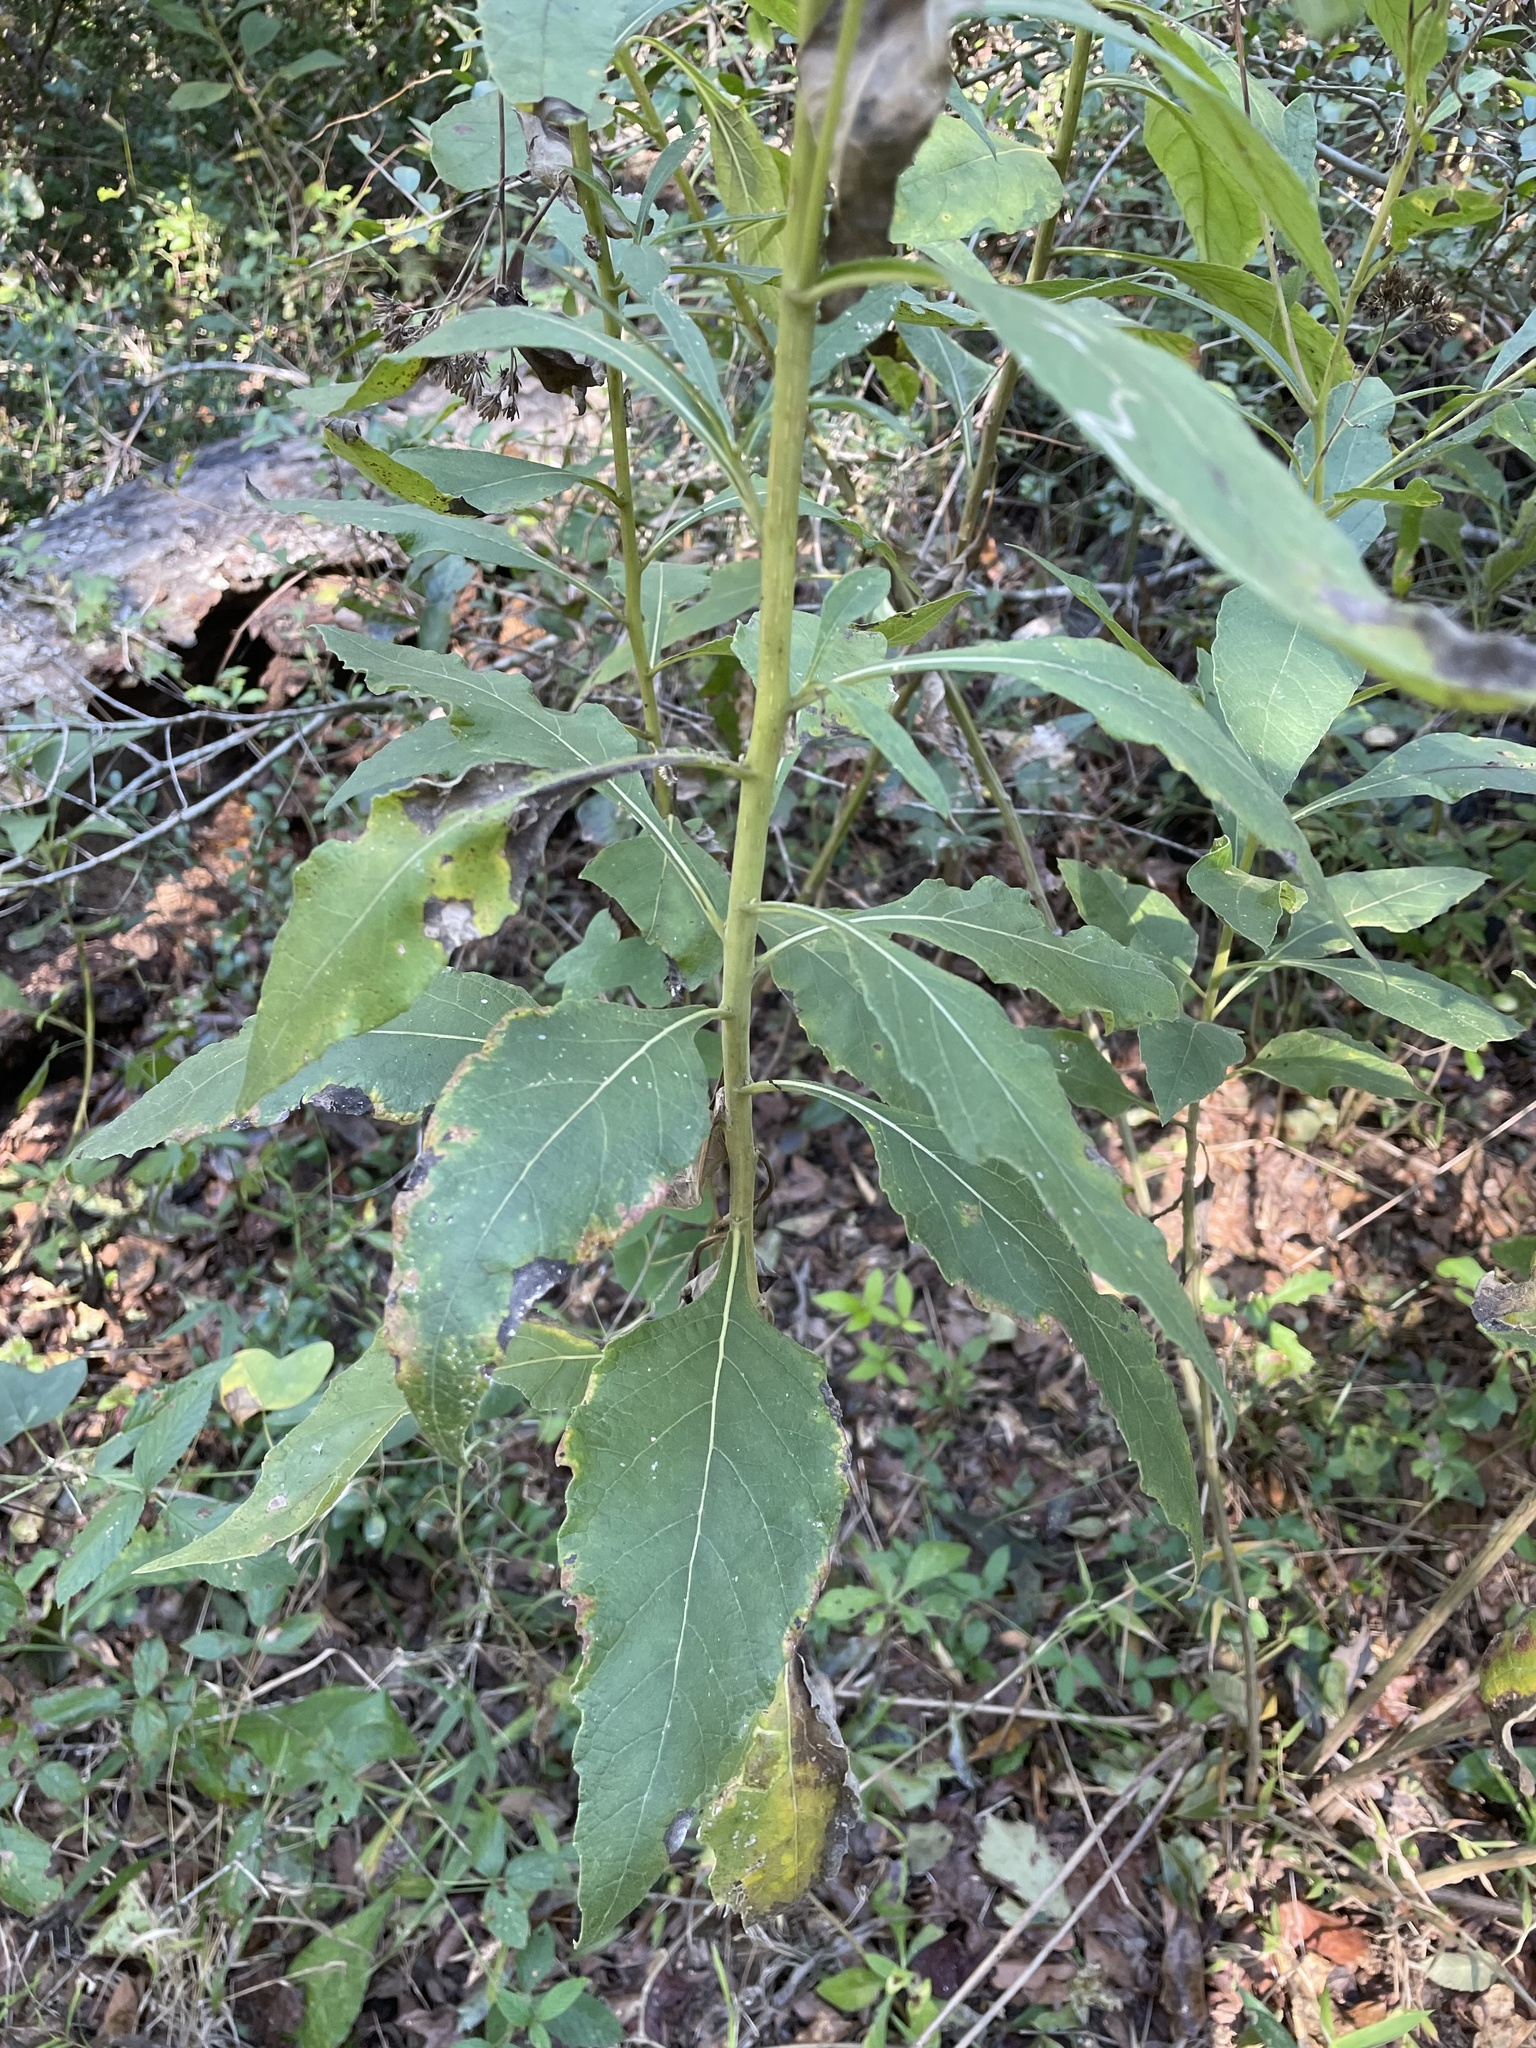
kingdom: Plantae
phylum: Tracheophyta
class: Magnoliopsida
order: Asterales
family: Asteraceae
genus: Verbesina
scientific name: Verbesina virginica
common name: Frostweed
